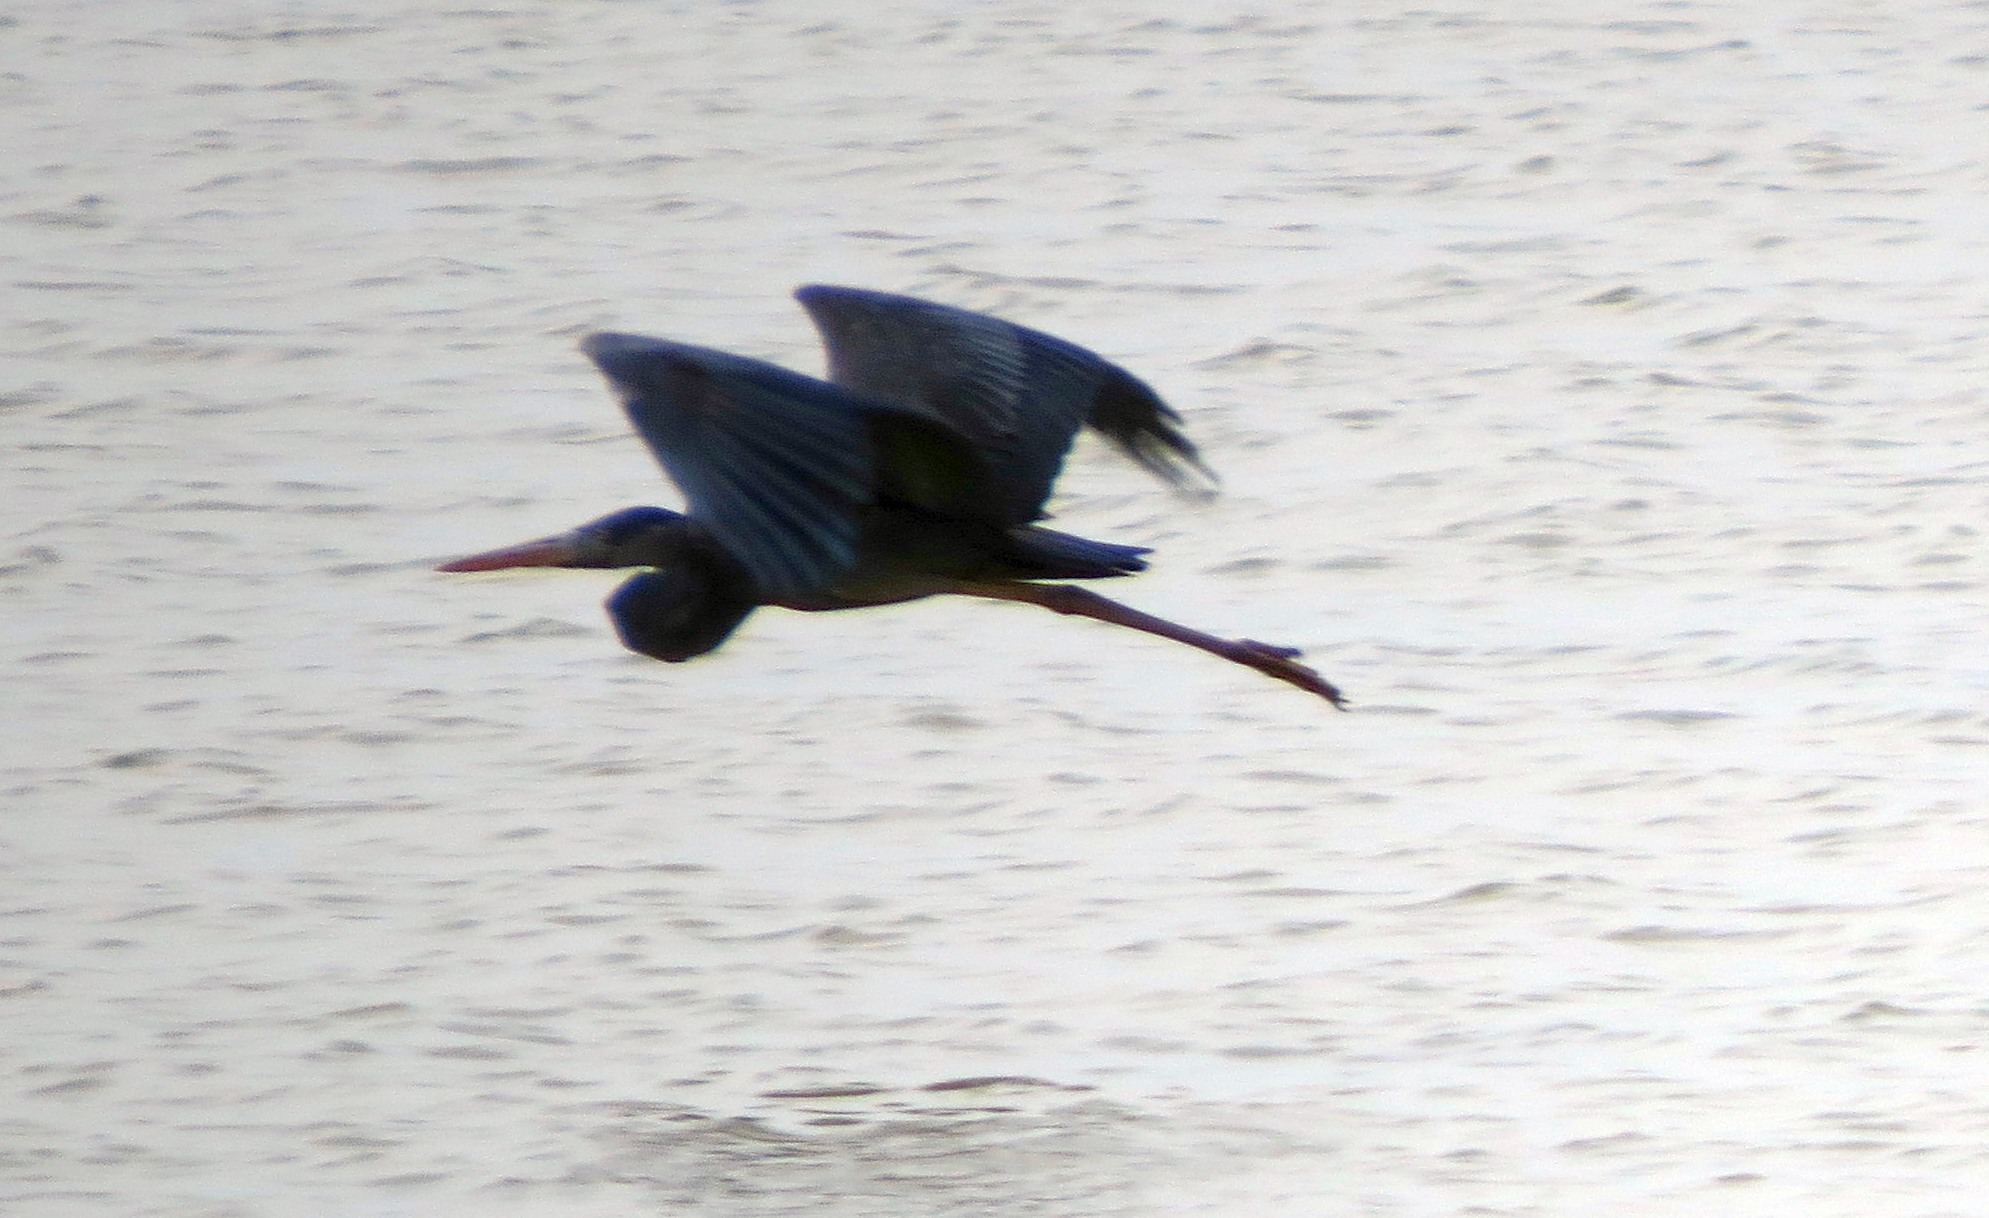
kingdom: Animalia
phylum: Chordata
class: Aves
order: Pelecaniformes
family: Ardeidae
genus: Ardea
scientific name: Ardea humbloti
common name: Humblot's heron
